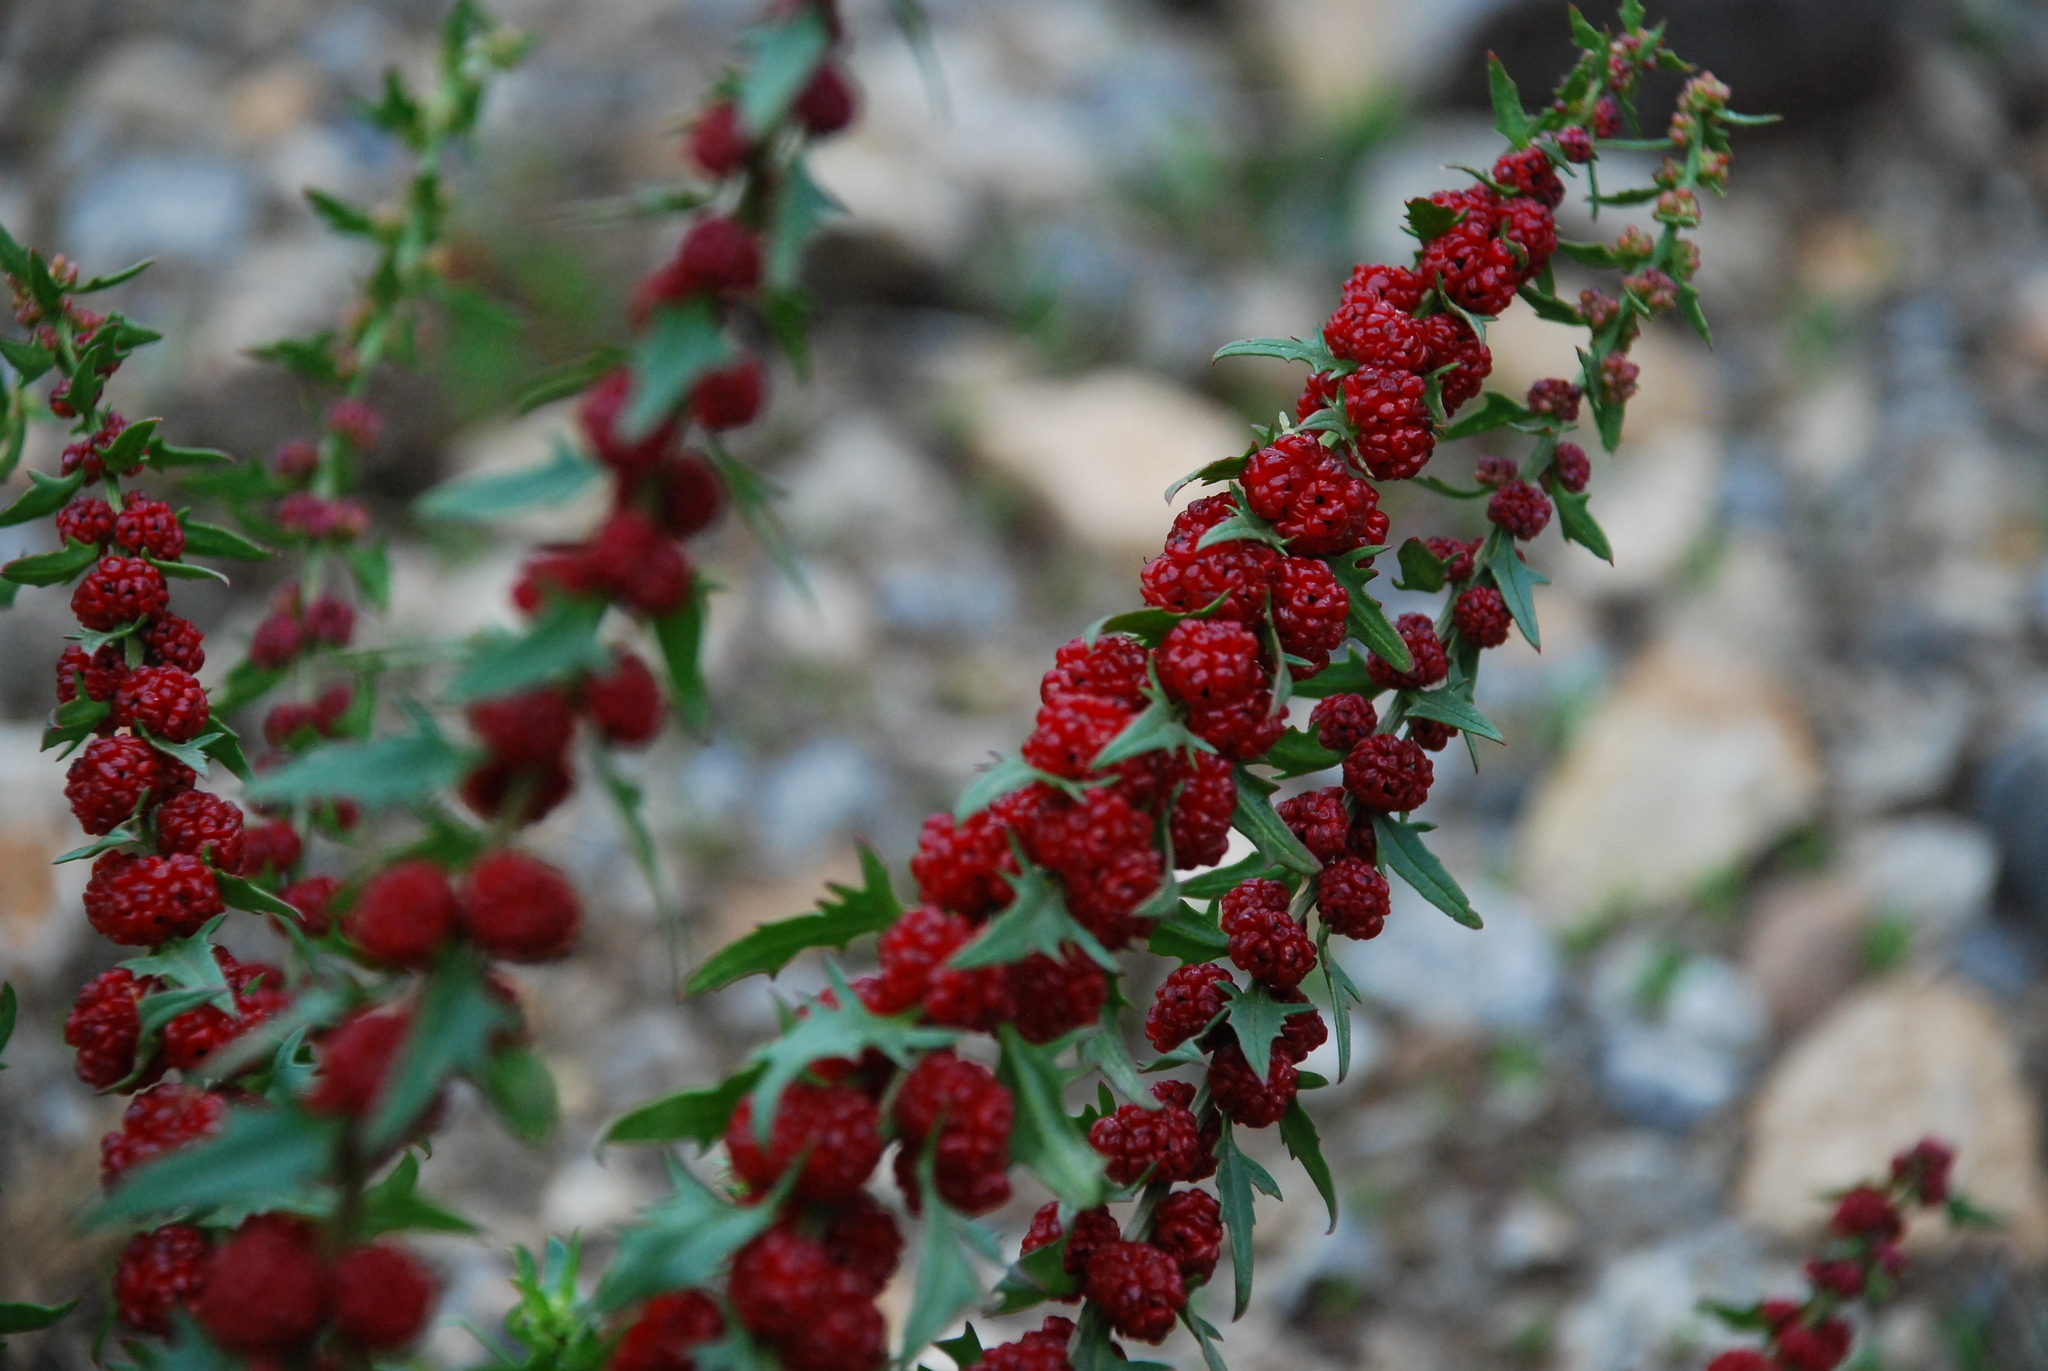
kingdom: Plantae
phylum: Tracheophyta
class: Magnoliopsida
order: Caryophyllales
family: Amaranthaceae
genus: Blitum
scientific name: Blitum virgatum
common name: Strawberry goosefoot
